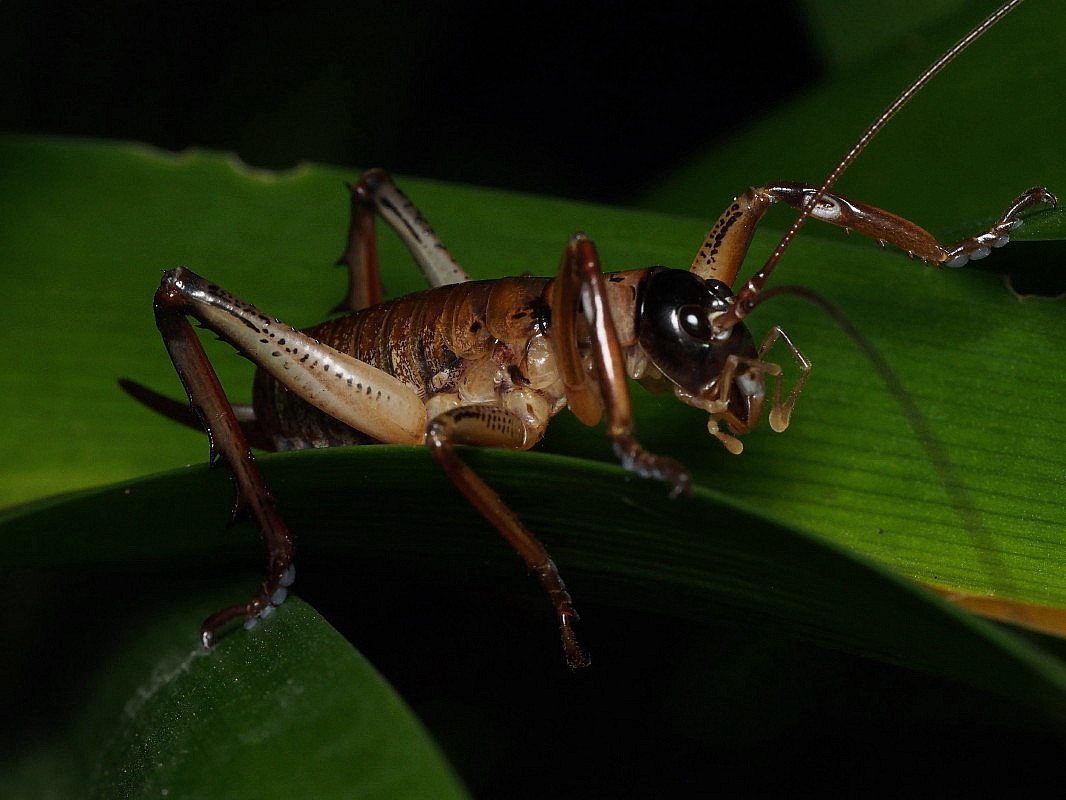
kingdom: Animalia
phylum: Arthropoda
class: Insecta
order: Orthoptera
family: Anostostomatidae
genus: Hemideina
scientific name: Hemideina thoracica
